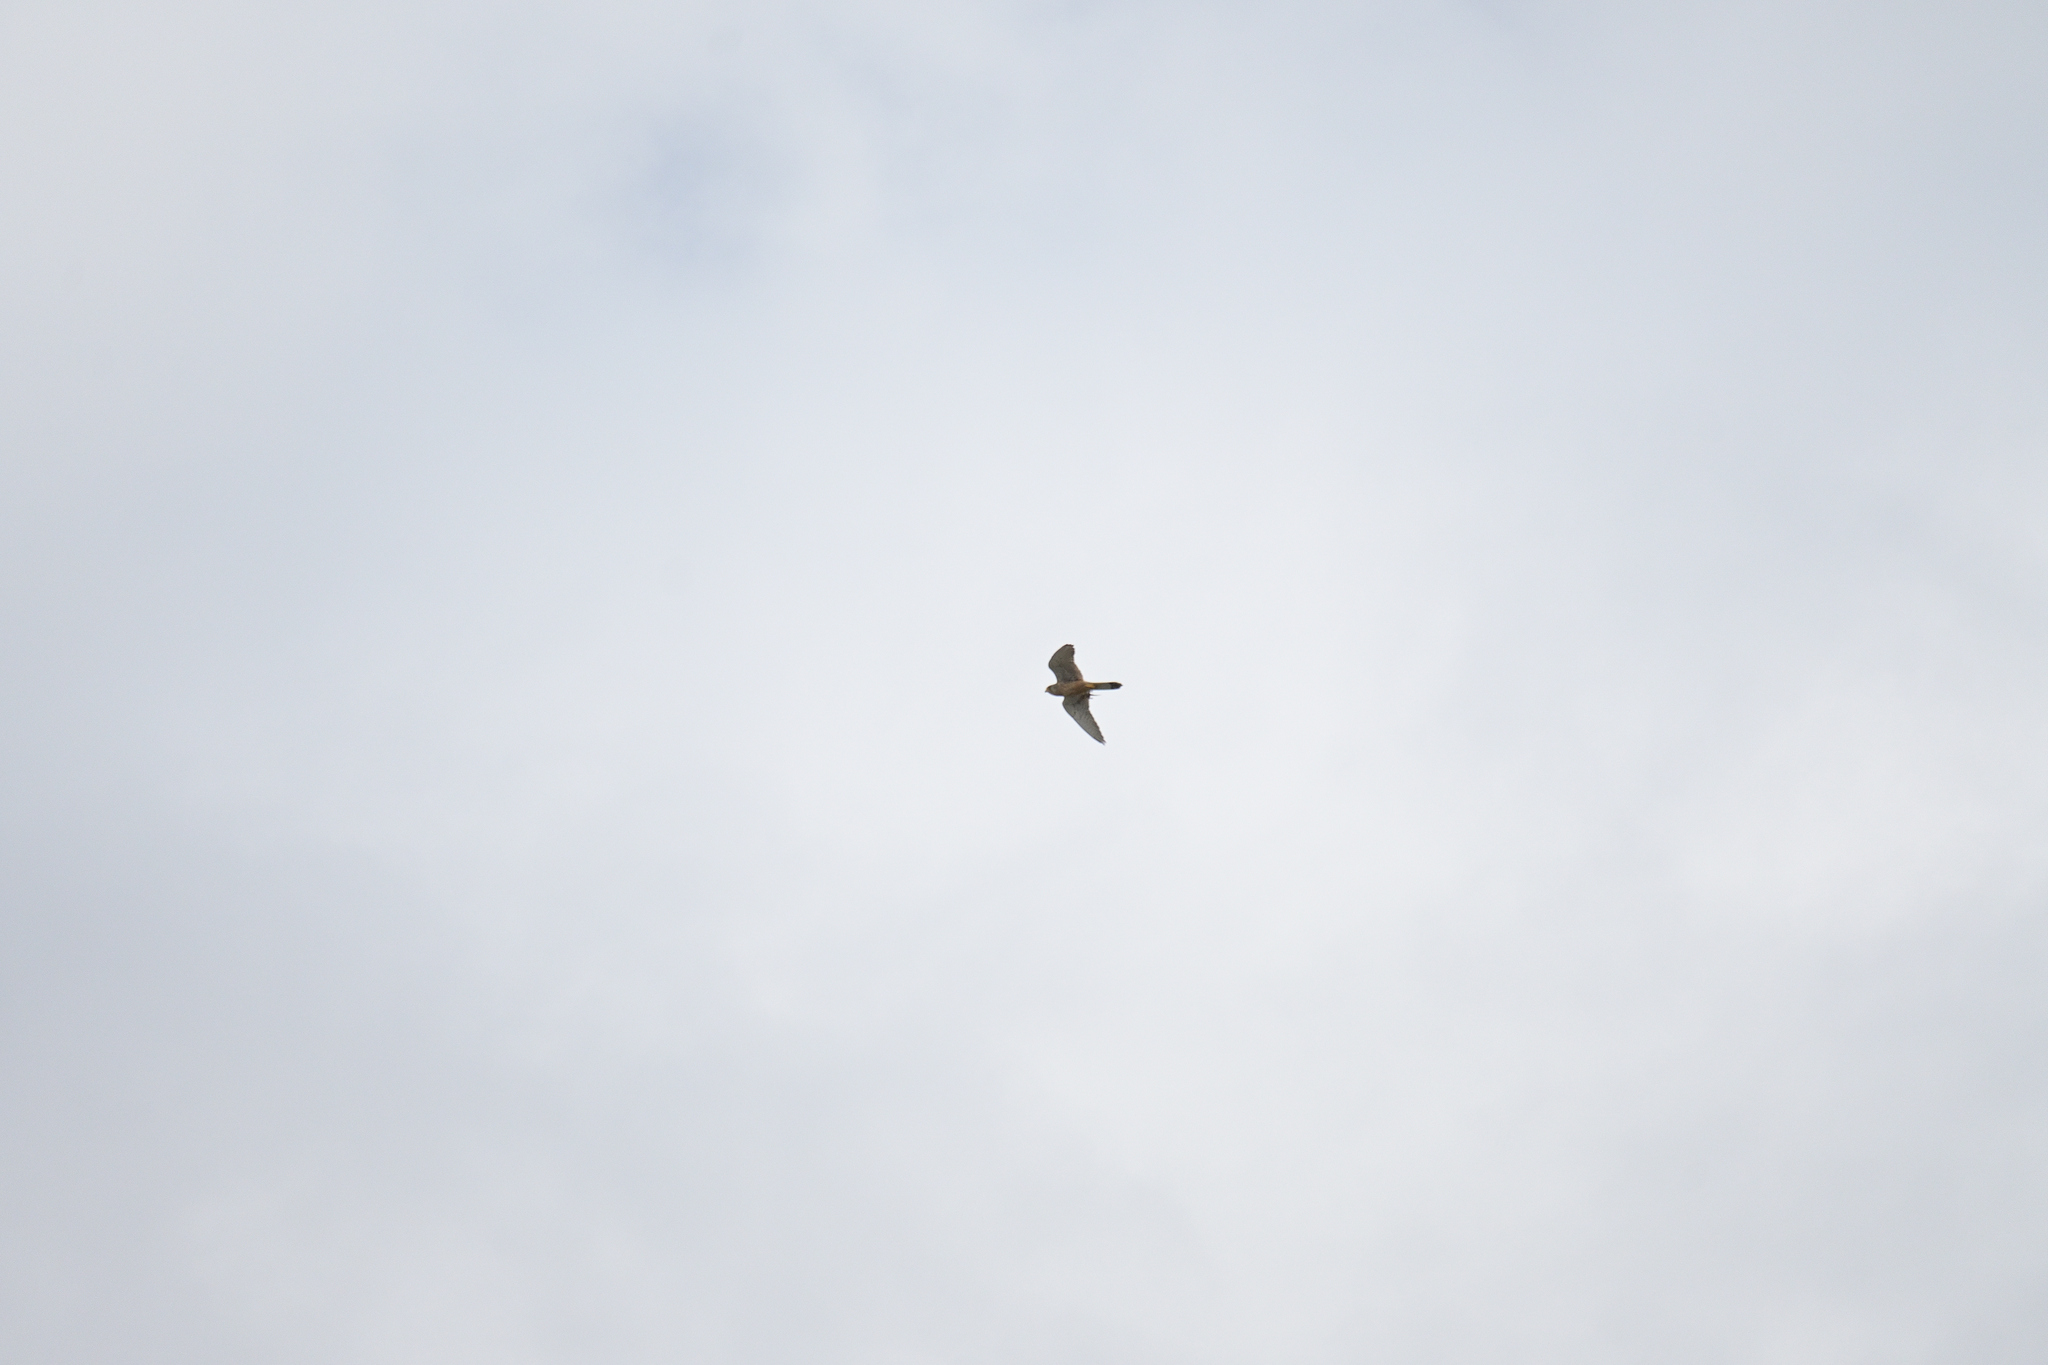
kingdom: Animalia
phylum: Chordata
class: Aves
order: Falconiformes
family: Falconidae
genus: Falco
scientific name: Falco tinnunculus
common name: Common kestrel
